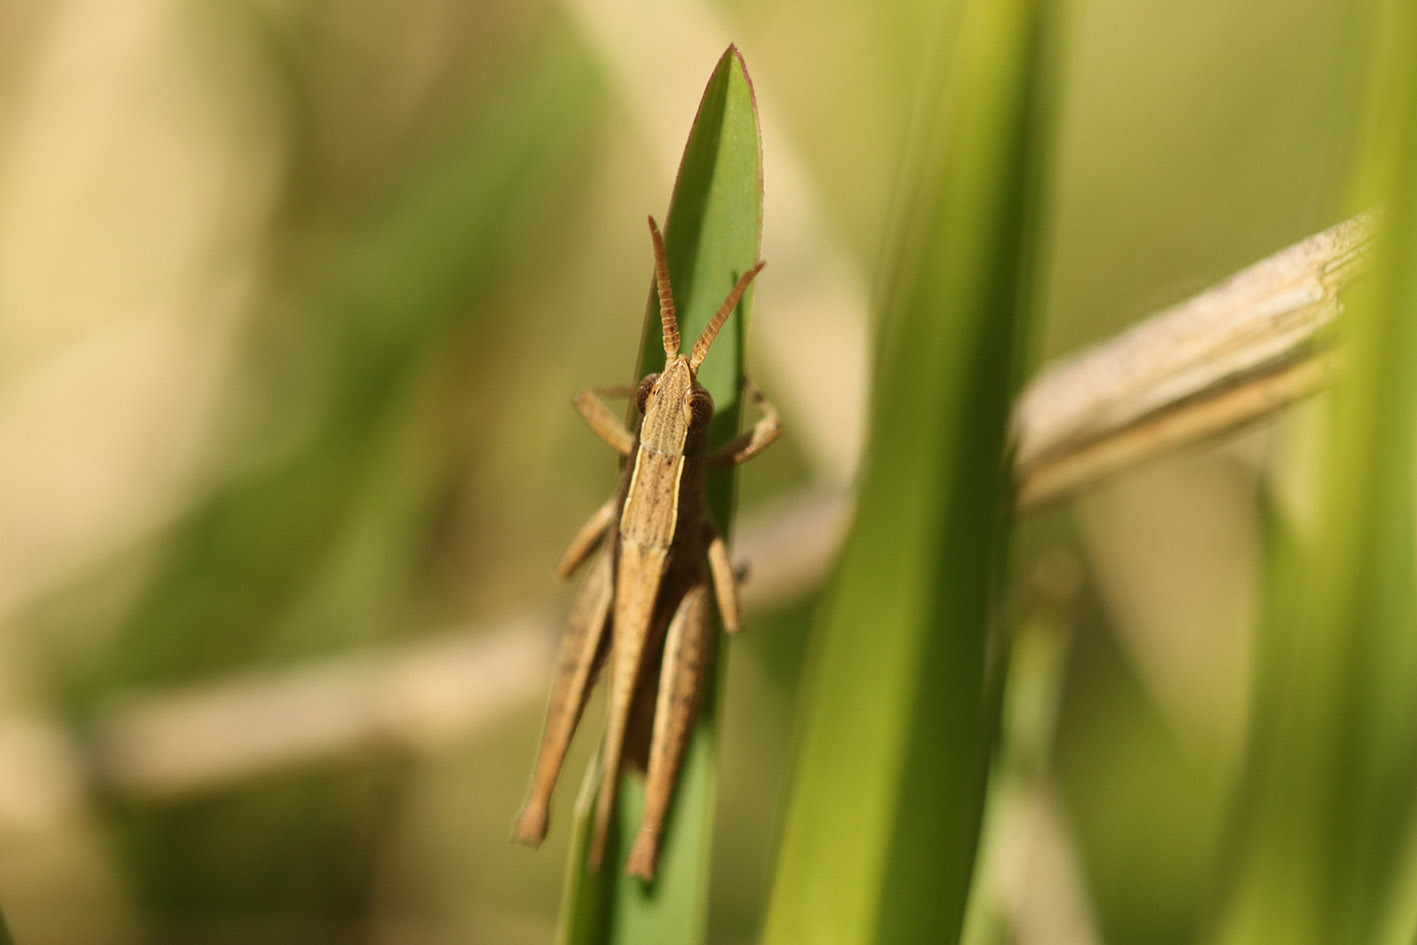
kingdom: Animalia
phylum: Arthropoda
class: Insecta
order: Orthoptera
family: Acrididae
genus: Laplatacris
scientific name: Laplatacris dispar
